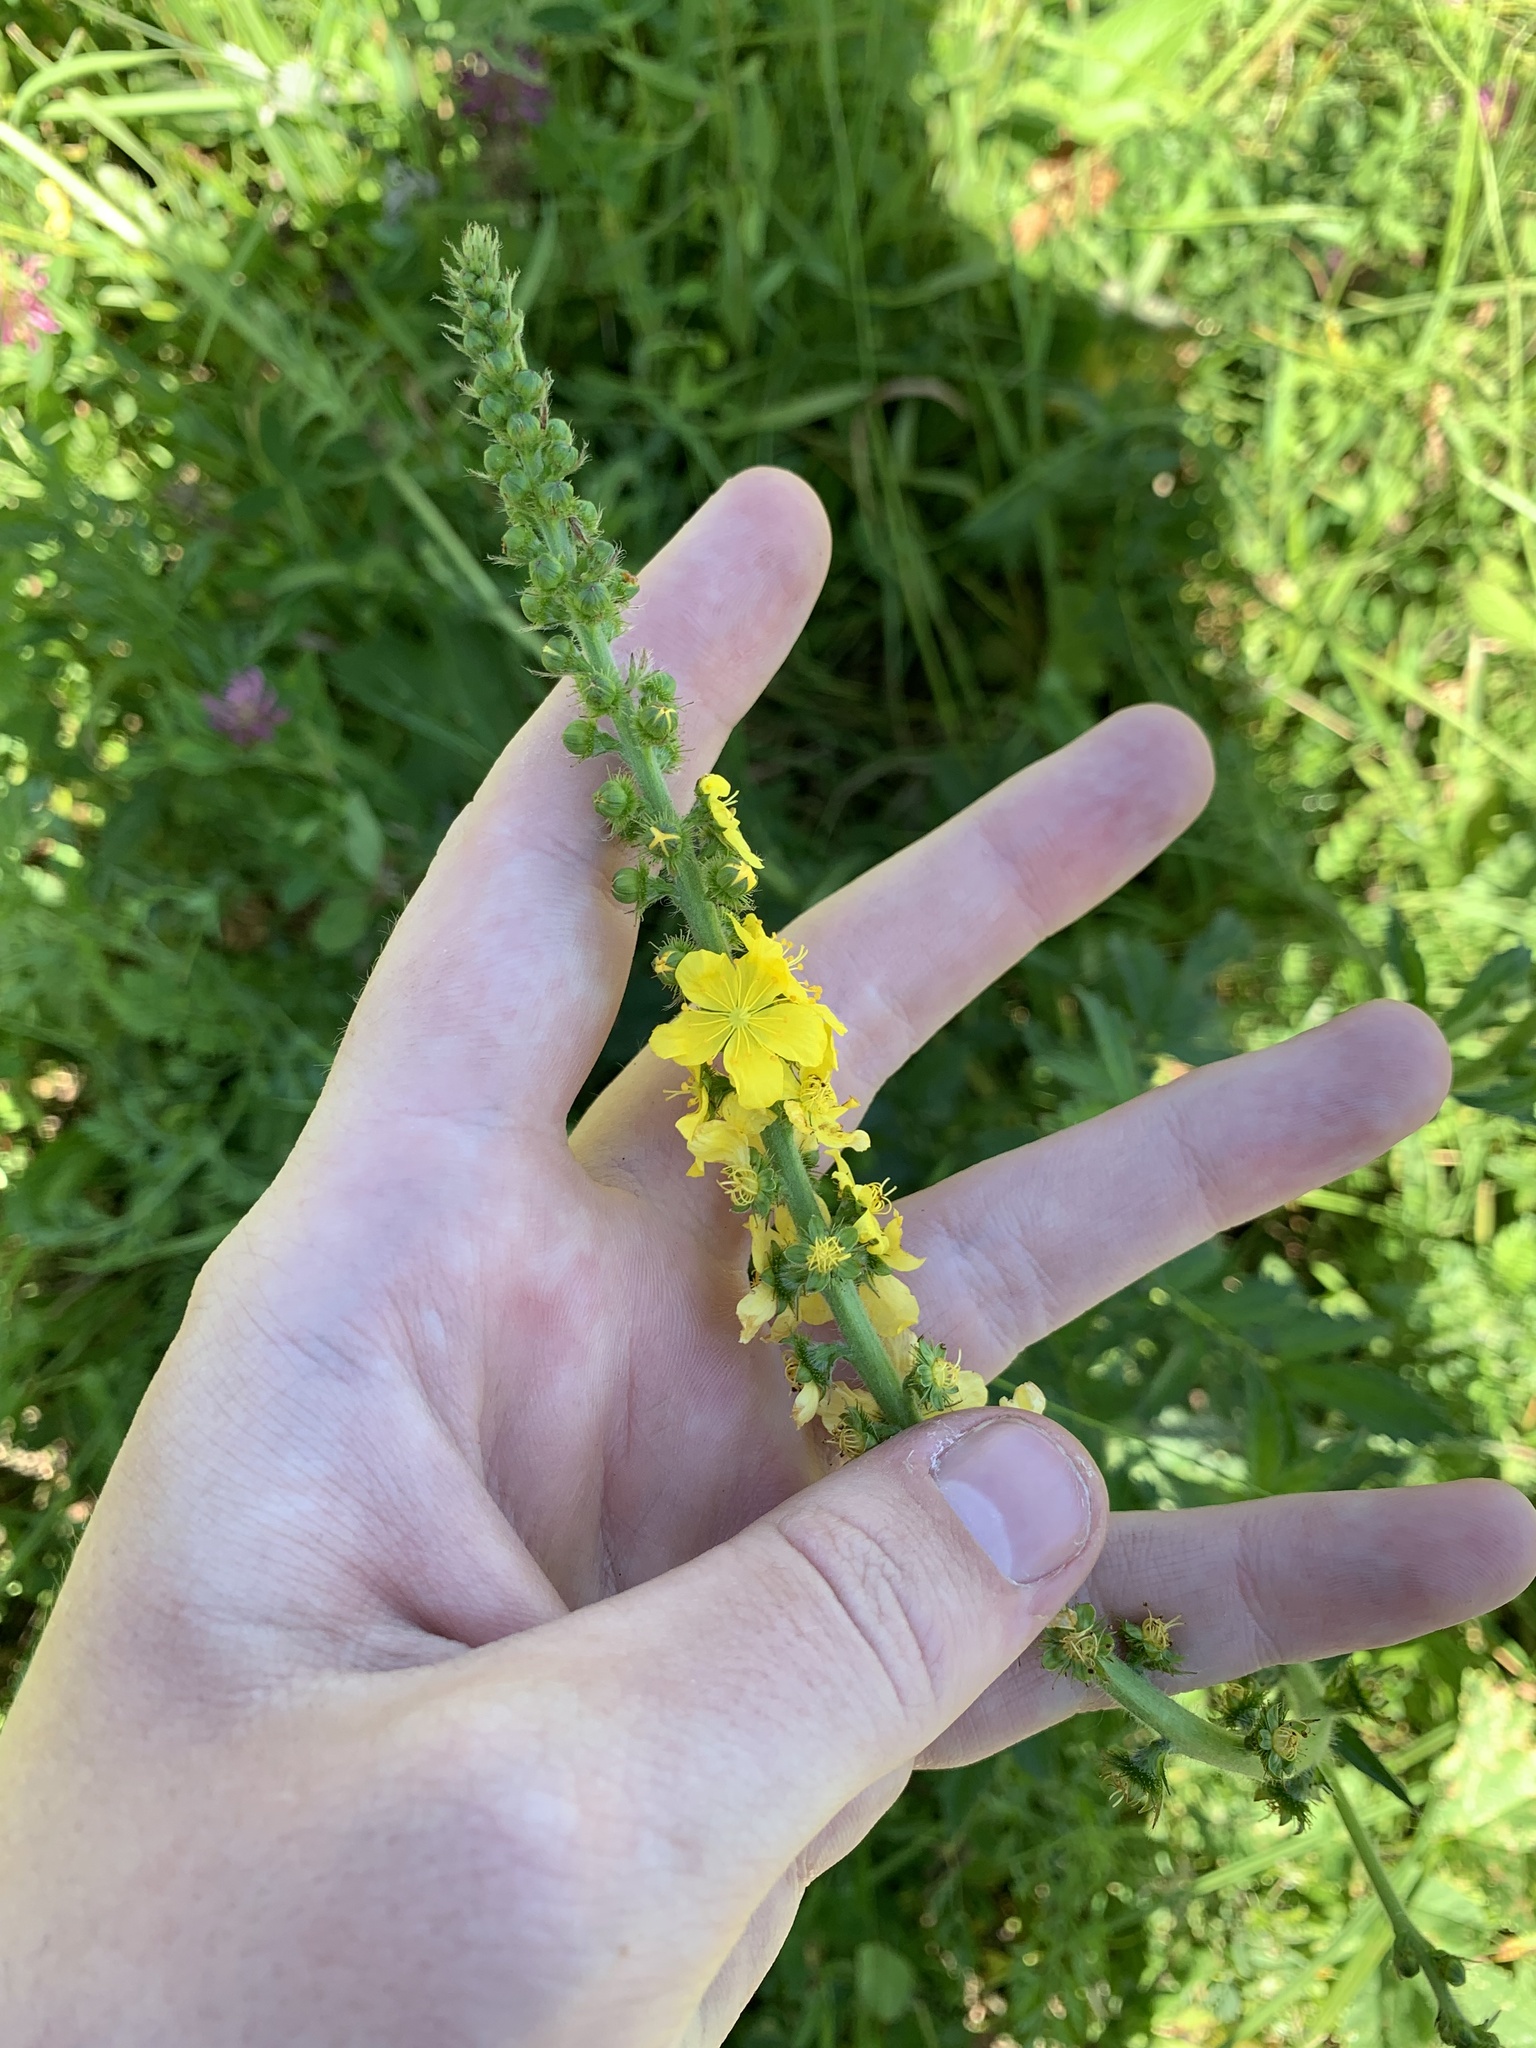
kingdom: Plantae
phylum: Tracheophyta
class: Magnoliopsida
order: Rosales
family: Rosaceae
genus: Agrimonia
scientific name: Agrimonia eupatoria
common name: Agrimony
